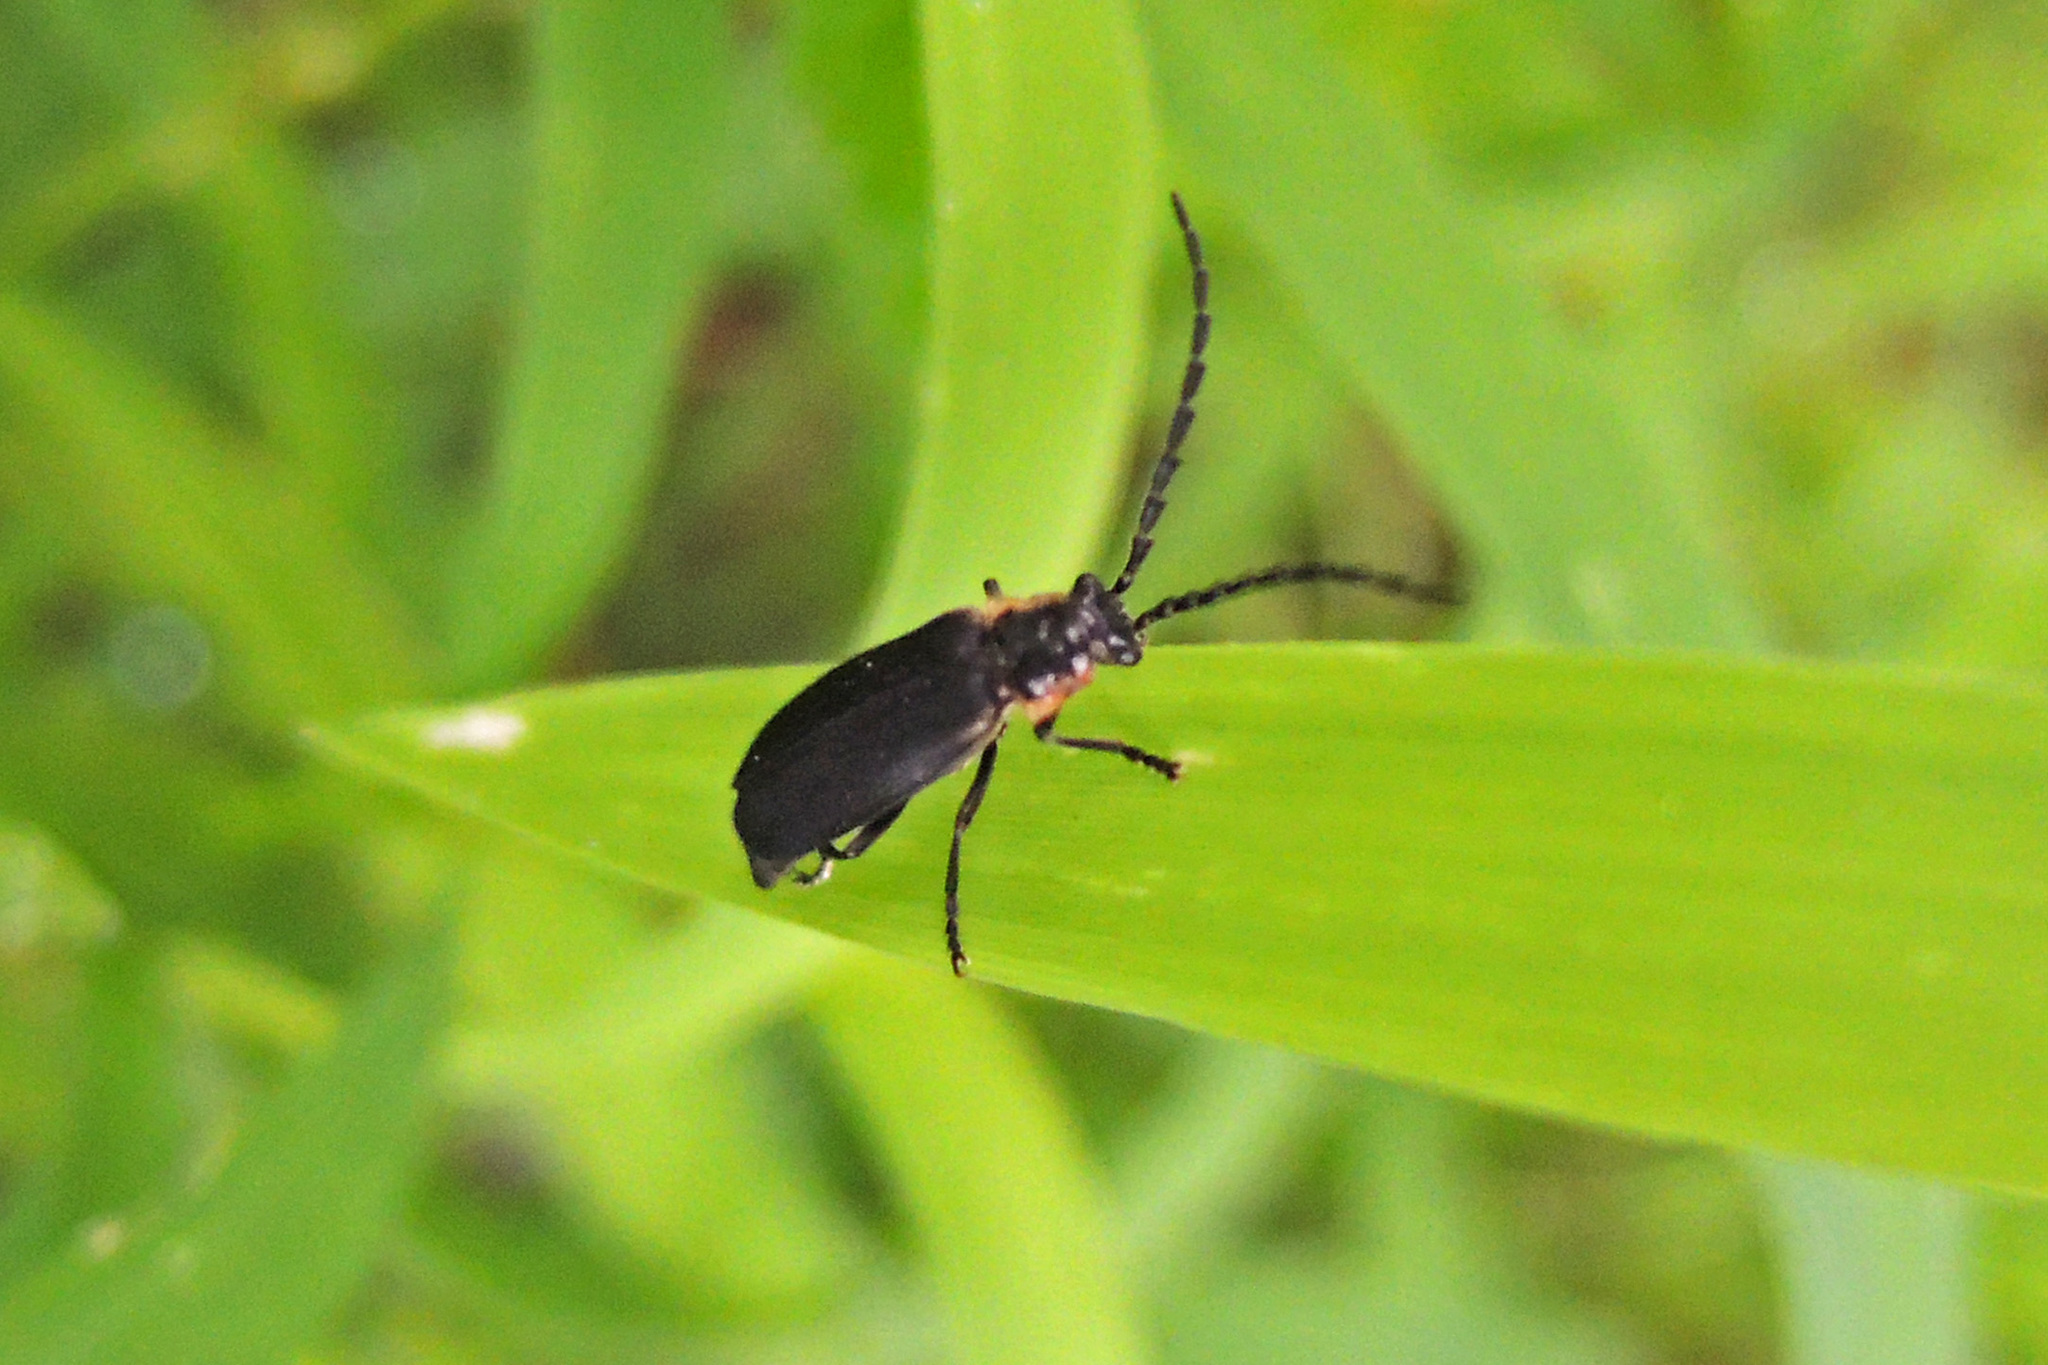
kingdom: Animalia
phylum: Arthropoda
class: Insecta
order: Coleoptera
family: Cantharidae
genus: Polemius
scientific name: Polemius laticornis
